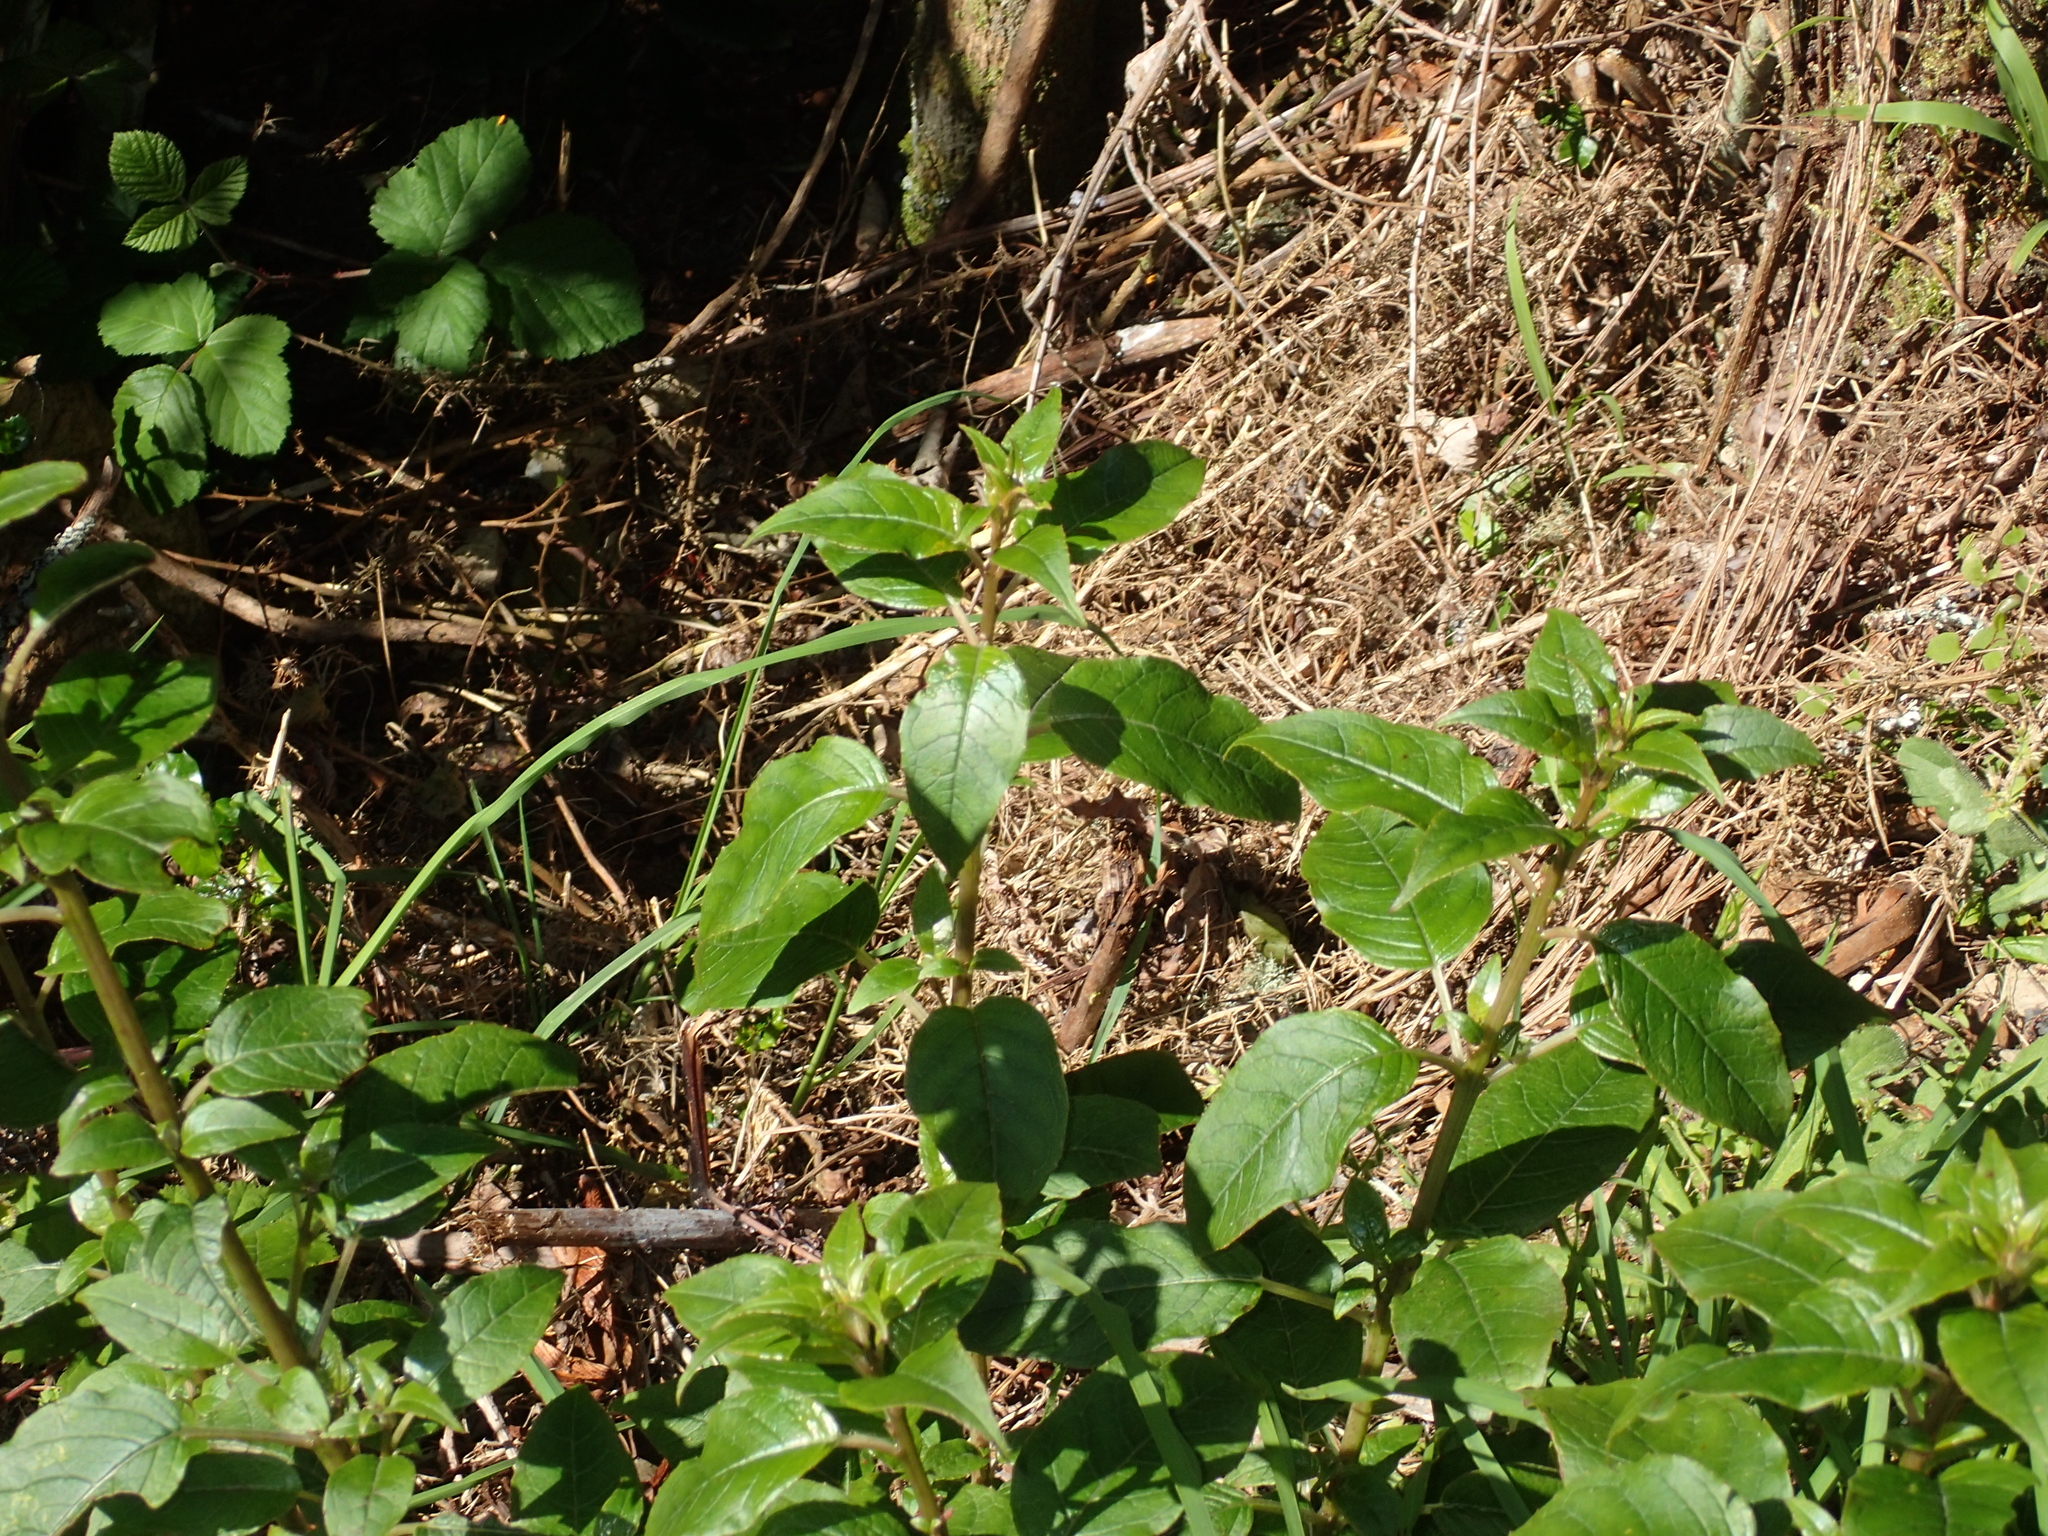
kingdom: Plantae
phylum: Tracheophyta
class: Magnoliopsida
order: Myrtales
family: Onagraceae
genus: Fuchsia
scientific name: Fuchsia excorticata
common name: Tree fuchsia
